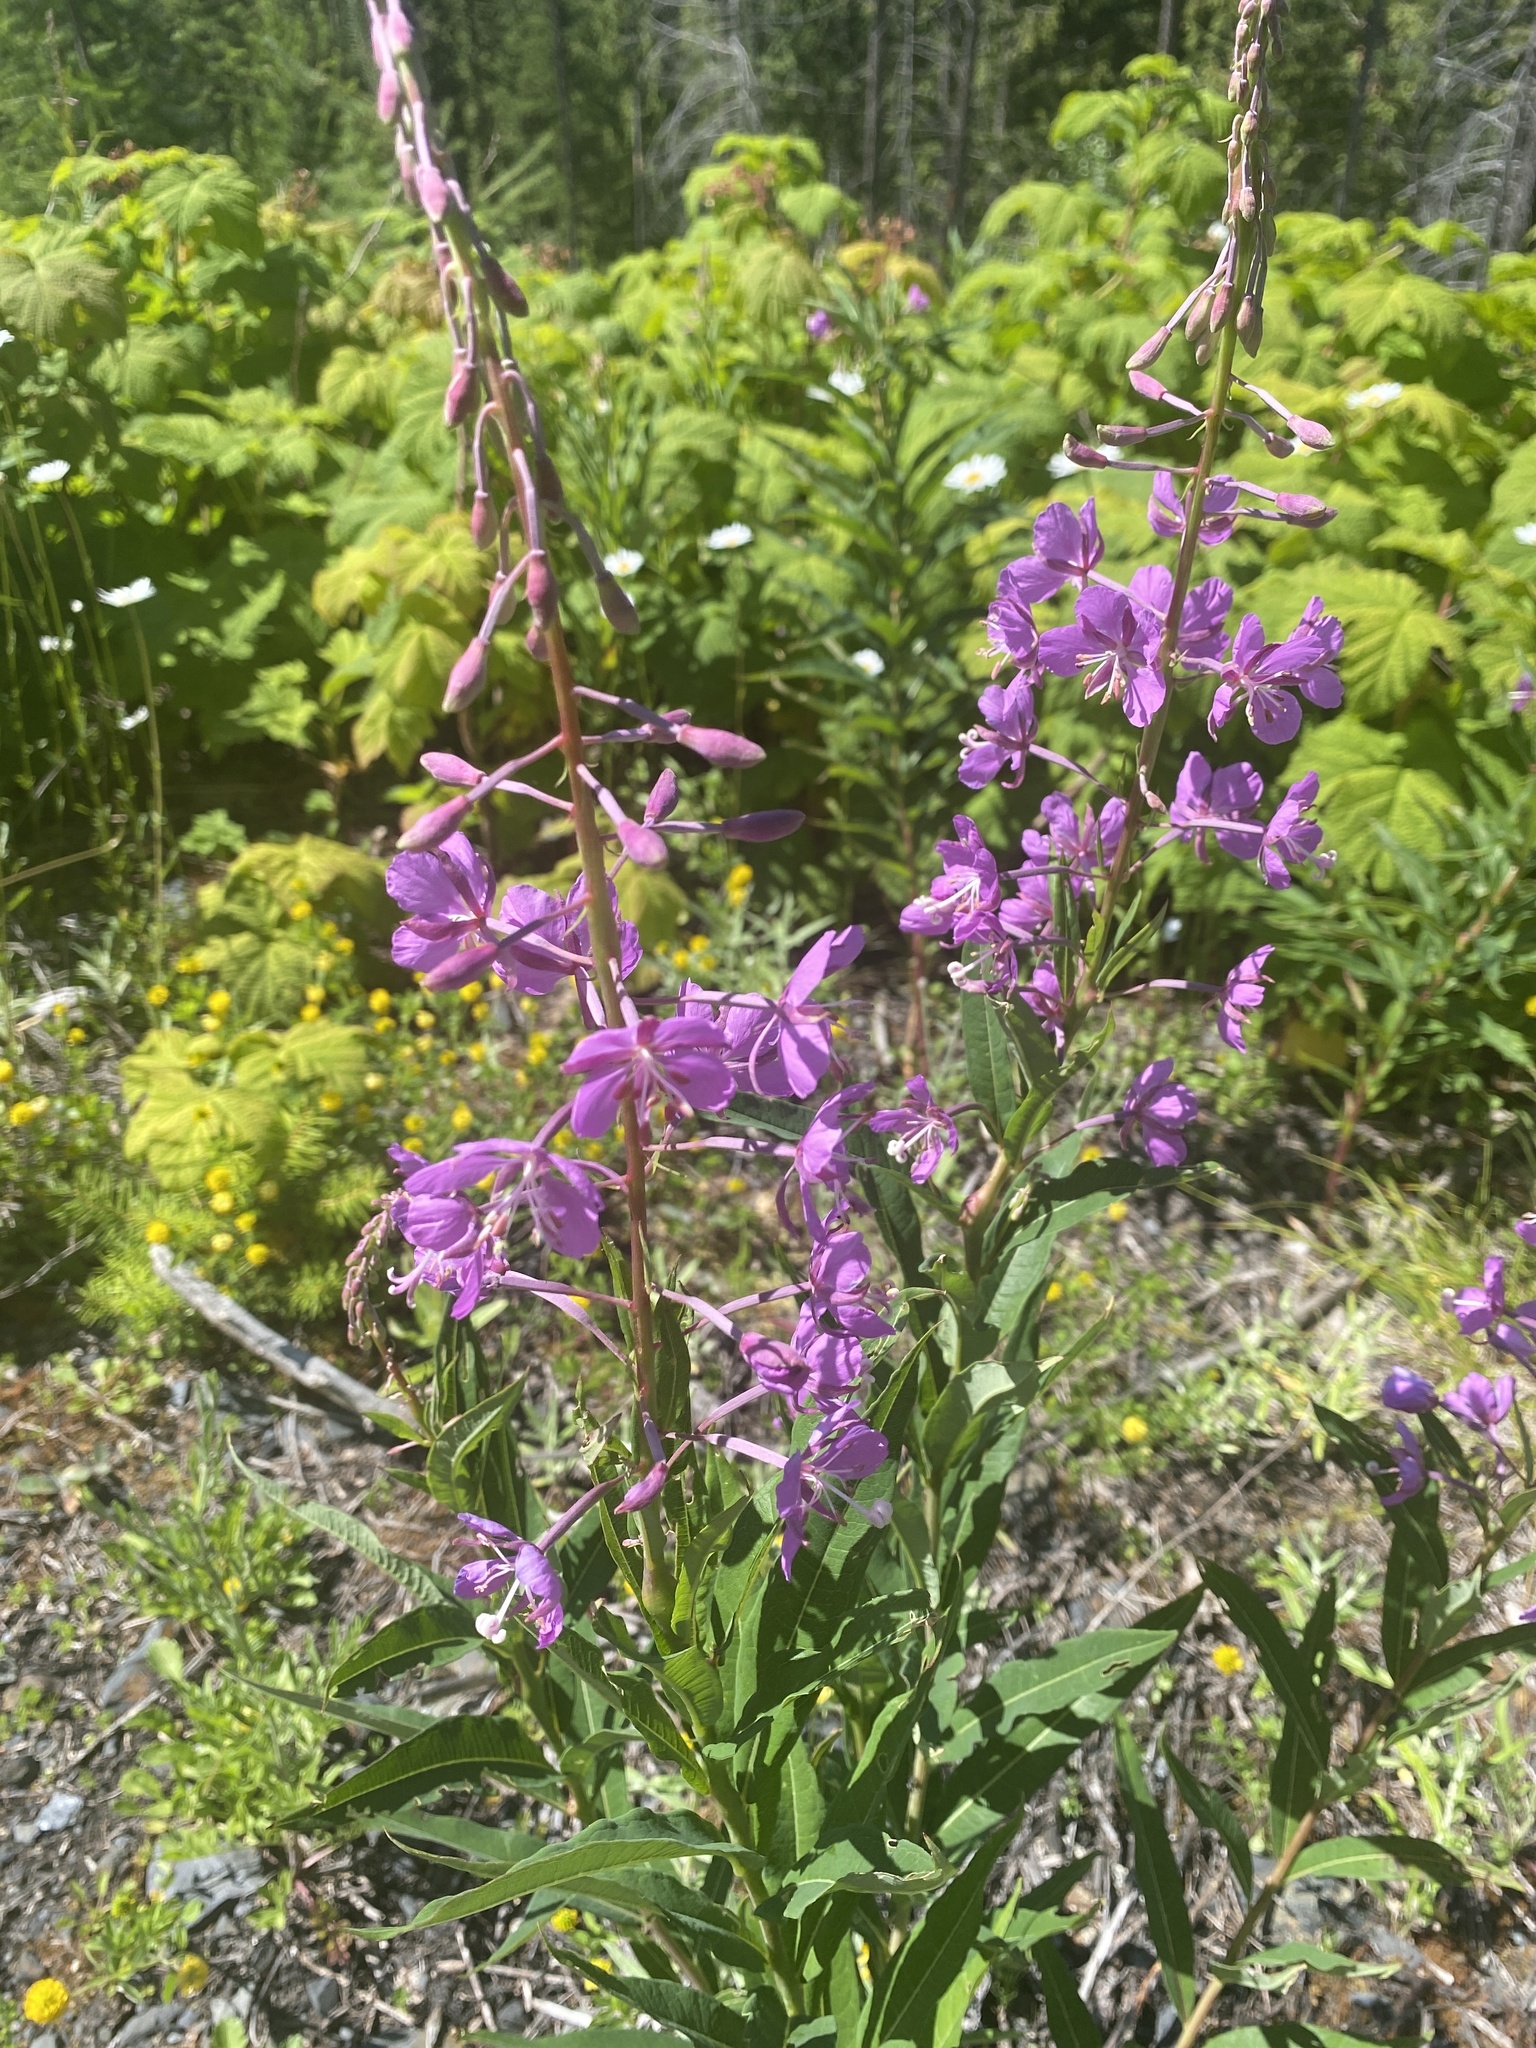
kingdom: Plantae
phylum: Tracheophyta
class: Magnoliopsida
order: Myrtales
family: Onagraceae
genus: Chamaenerion
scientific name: Chamaenerion angustifolium
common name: Fireweed
